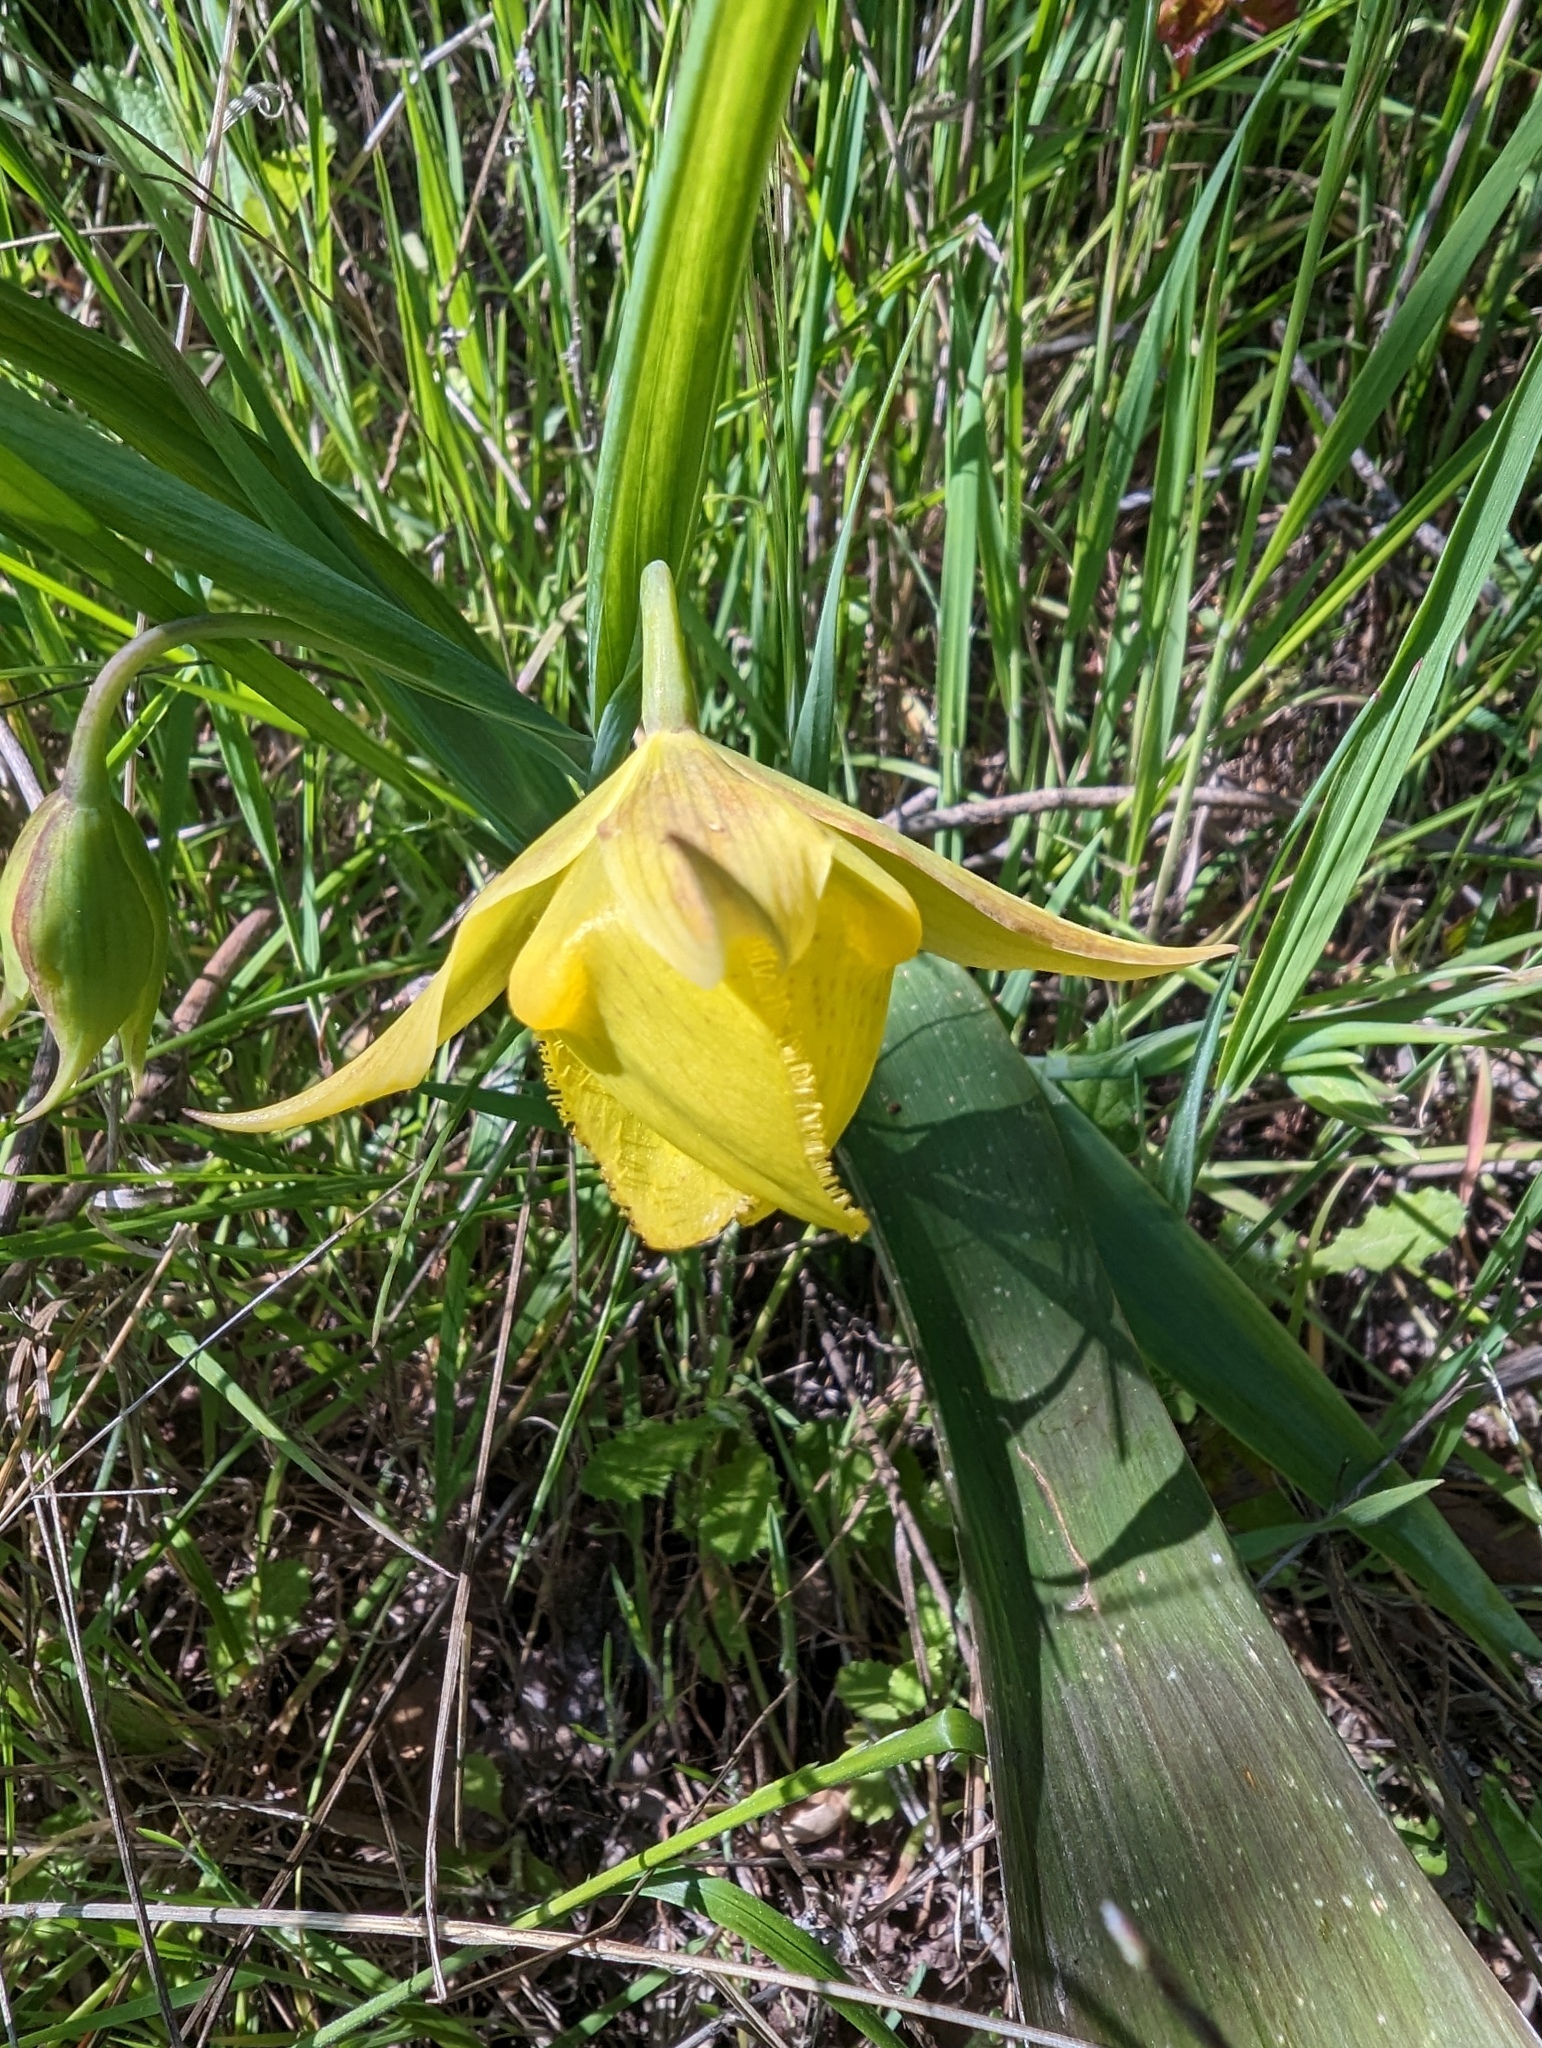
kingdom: Plantae
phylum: Tracheophyta
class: Liliopsida
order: Liliales
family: Liliaceae
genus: Calochortus
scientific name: Calochortus pulchellus
